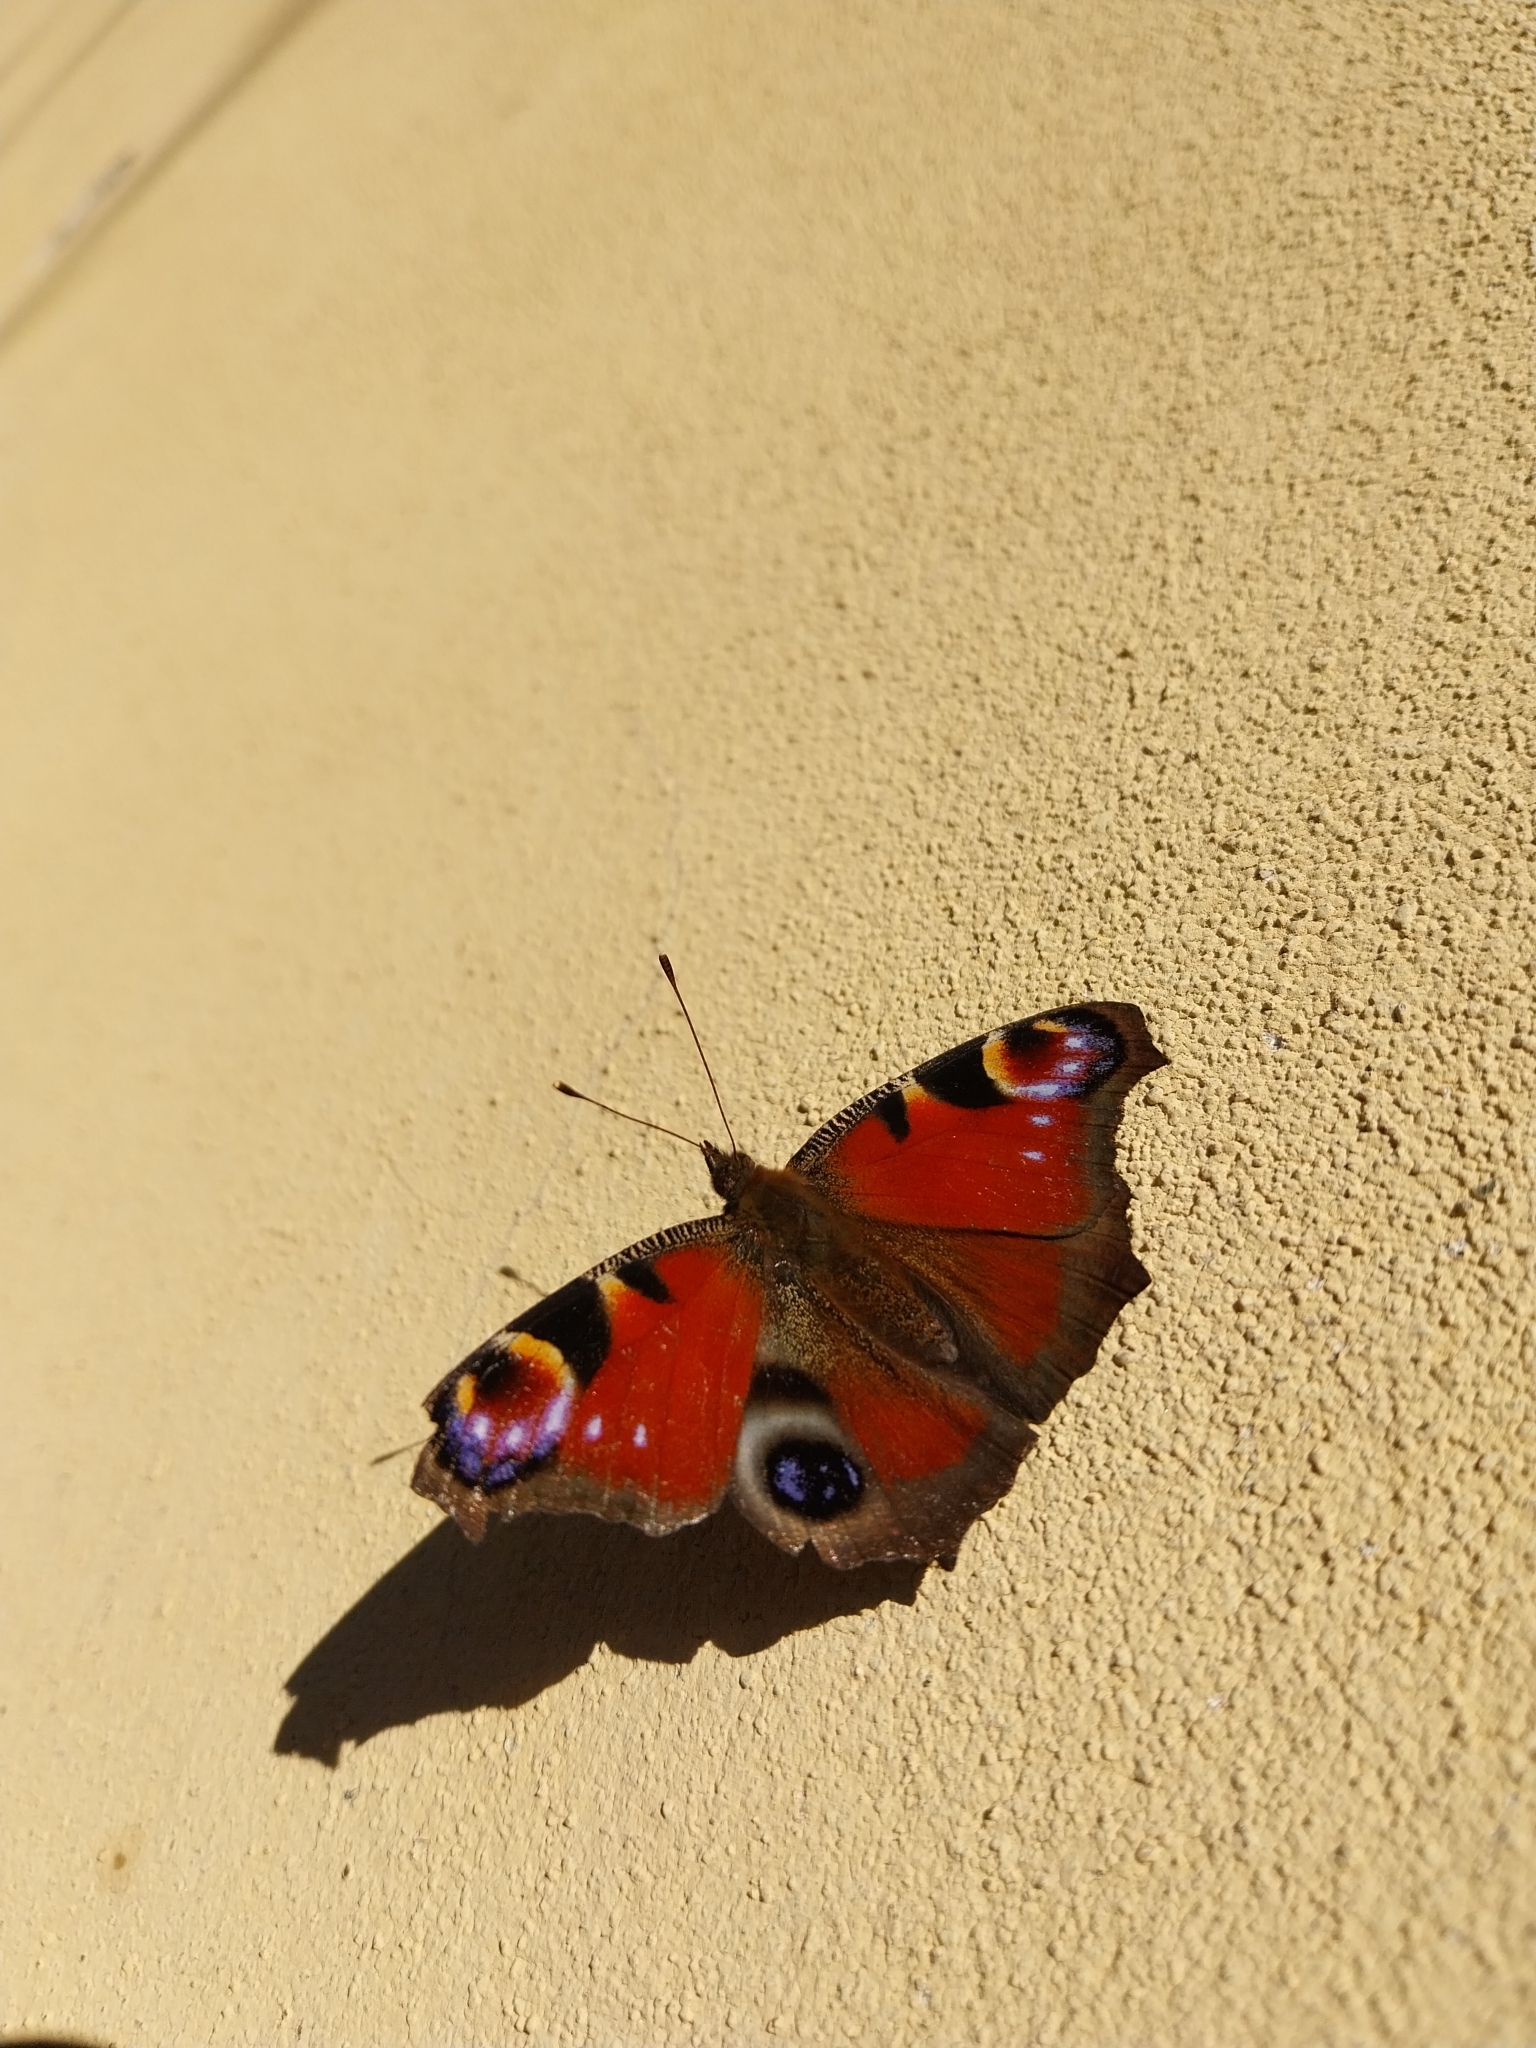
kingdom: Animalia
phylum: Arthropoda
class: Insecta
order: Lepidoptera
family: Nymphalidae
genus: Aglais
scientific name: Aglais io
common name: Peacock
